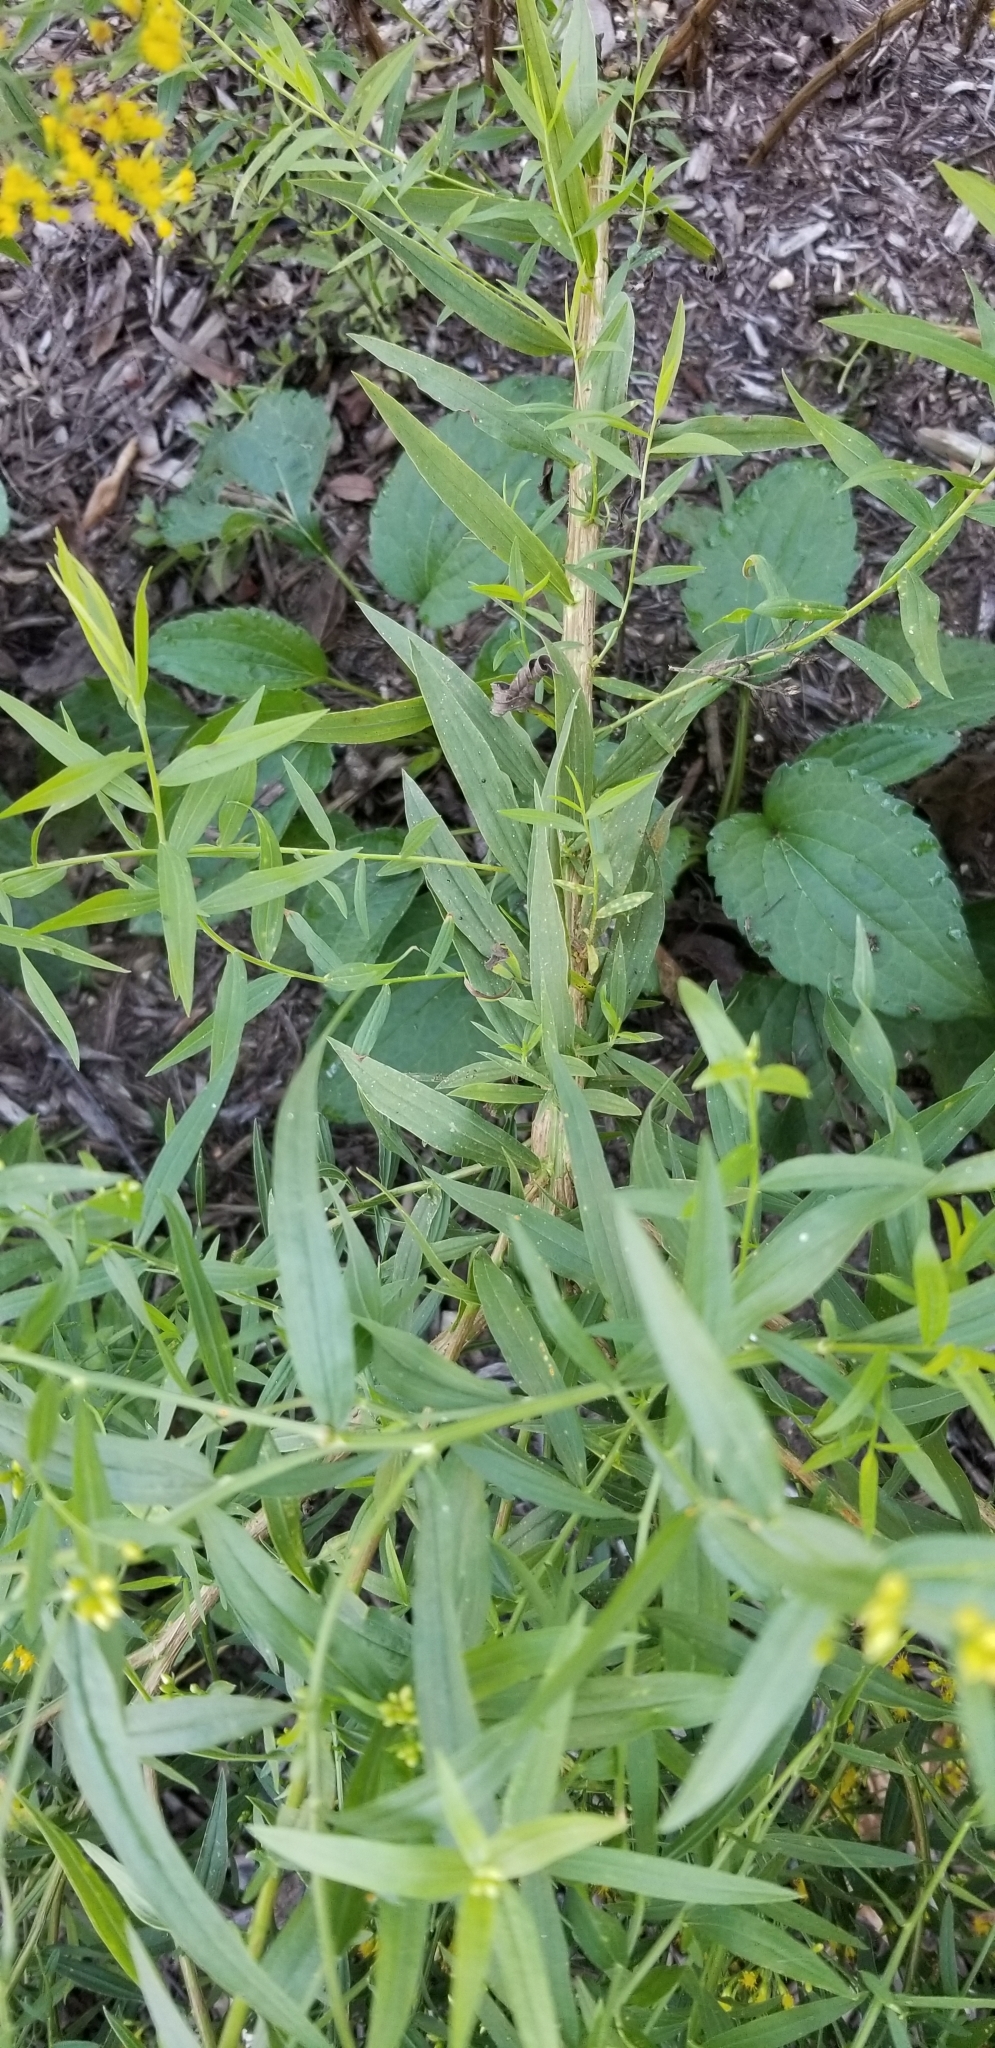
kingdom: Plantae
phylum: Tracheophyta
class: Magnoliopsida
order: Asterales
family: Asteraceae
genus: Euthamia
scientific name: Euthamia caroliniana
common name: Coastal plain goldentop
